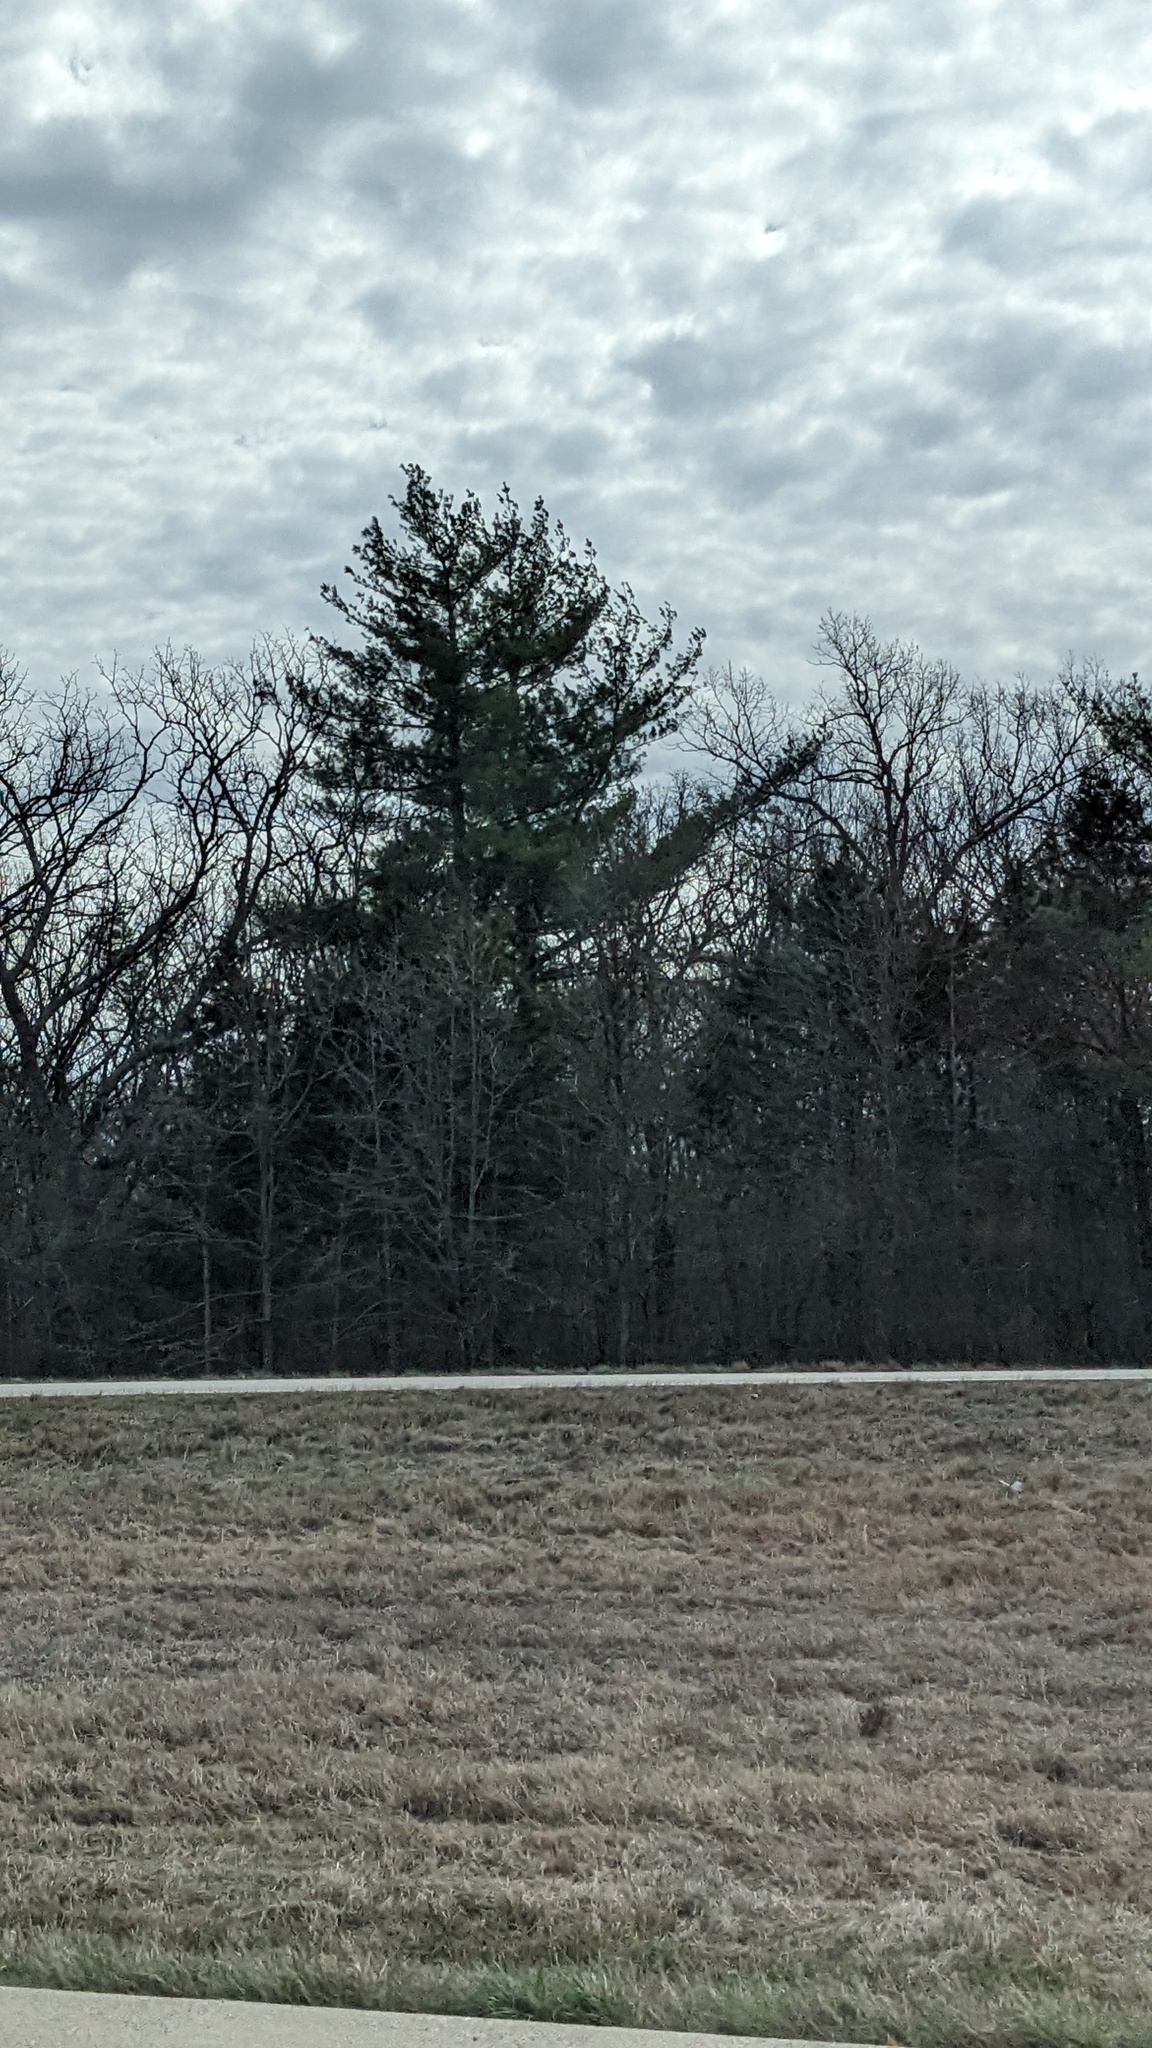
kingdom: Plantae
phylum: Tracheophyta
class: Pinopsida
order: Pinales
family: Pinaceae
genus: Pinus
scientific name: Pinus strobus
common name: Weymouth pine
